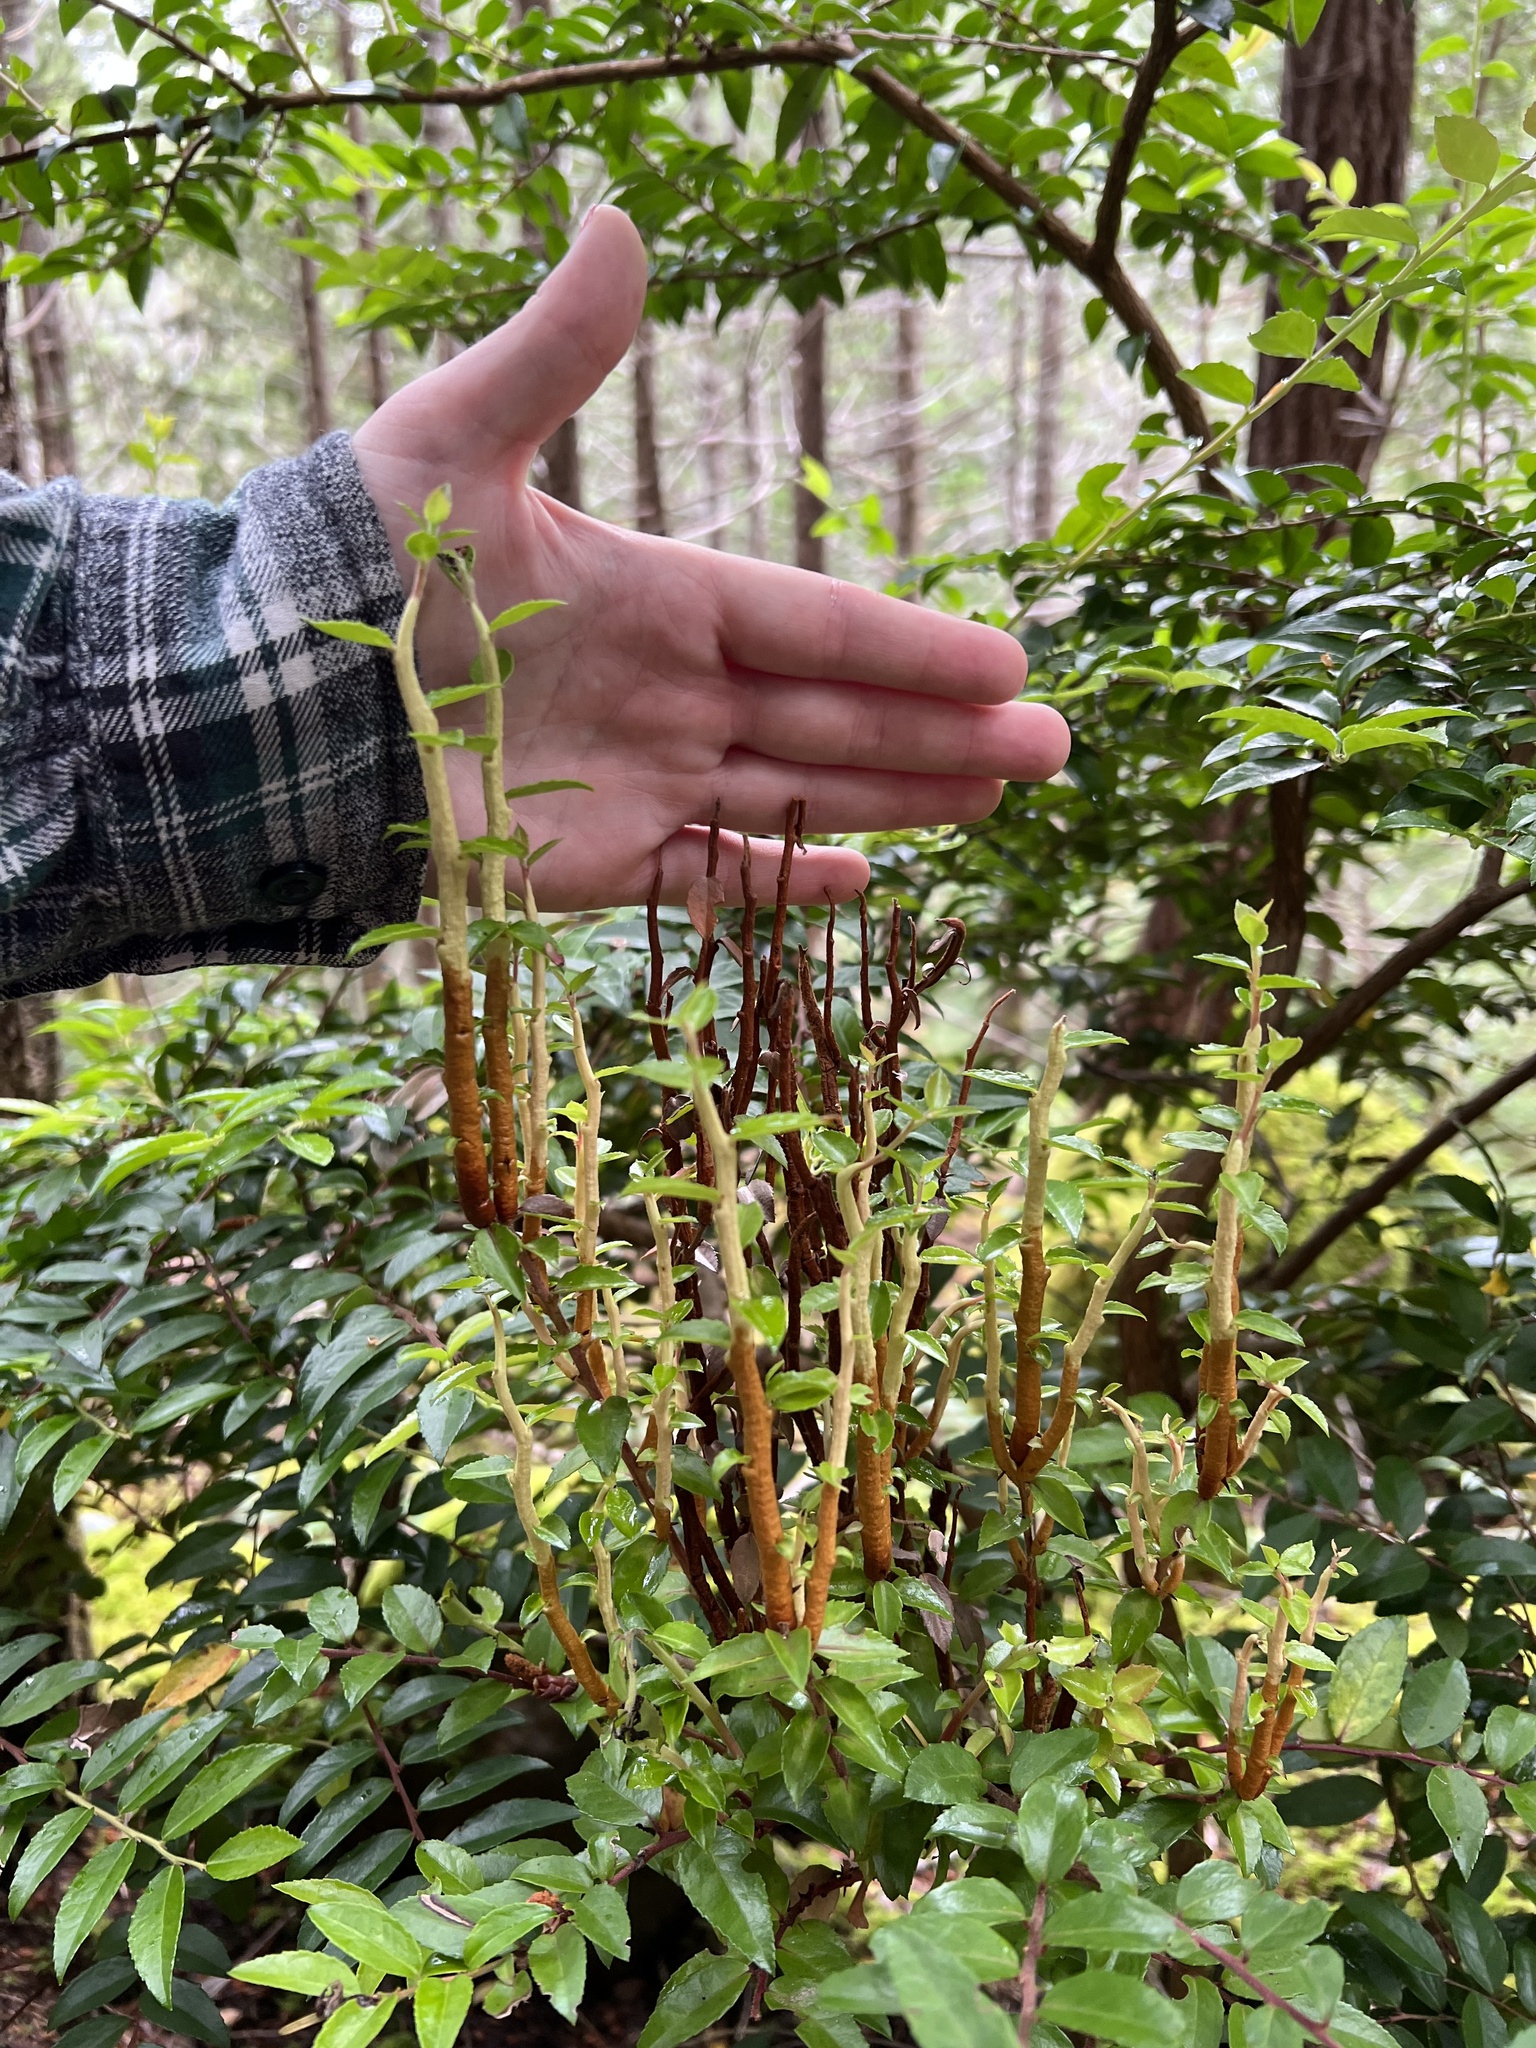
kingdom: Fungi
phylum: Basidiomycota
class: Pucciniomycetes
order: Pucciniales
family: Pucciniastraceae
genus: Calyptospora
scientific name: Calyptospora
